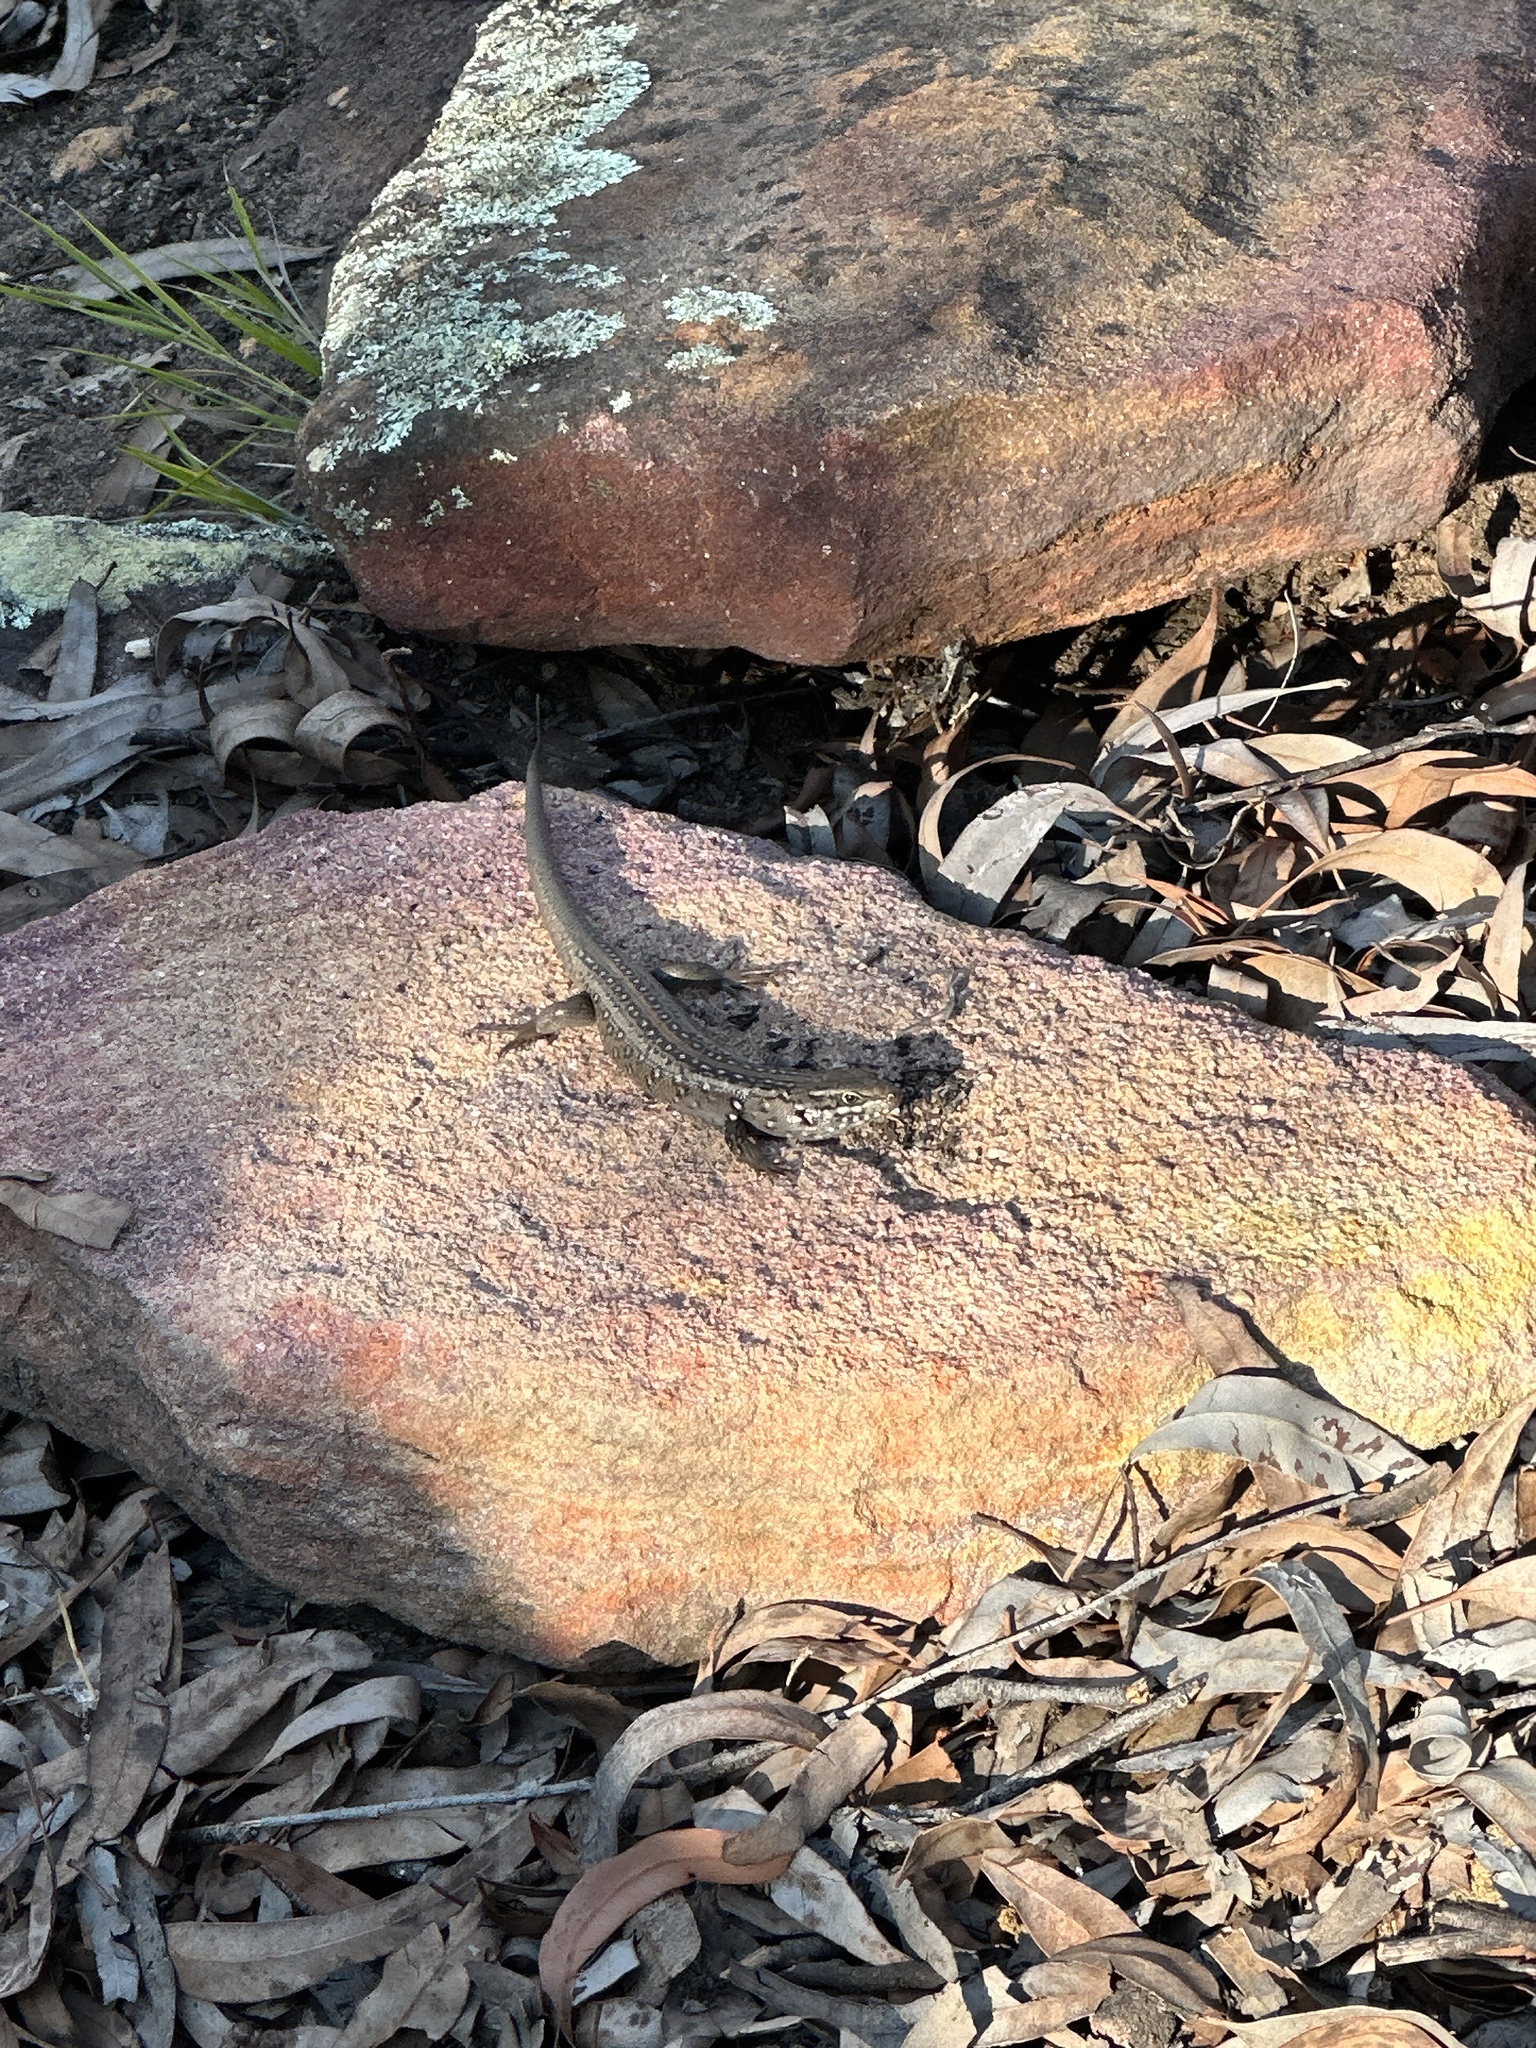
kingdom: Animalia
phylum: Chordata
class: Squamata
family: Scincidae
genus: Liopholis
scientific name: Liopholis whitii
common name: White's rock-skink
